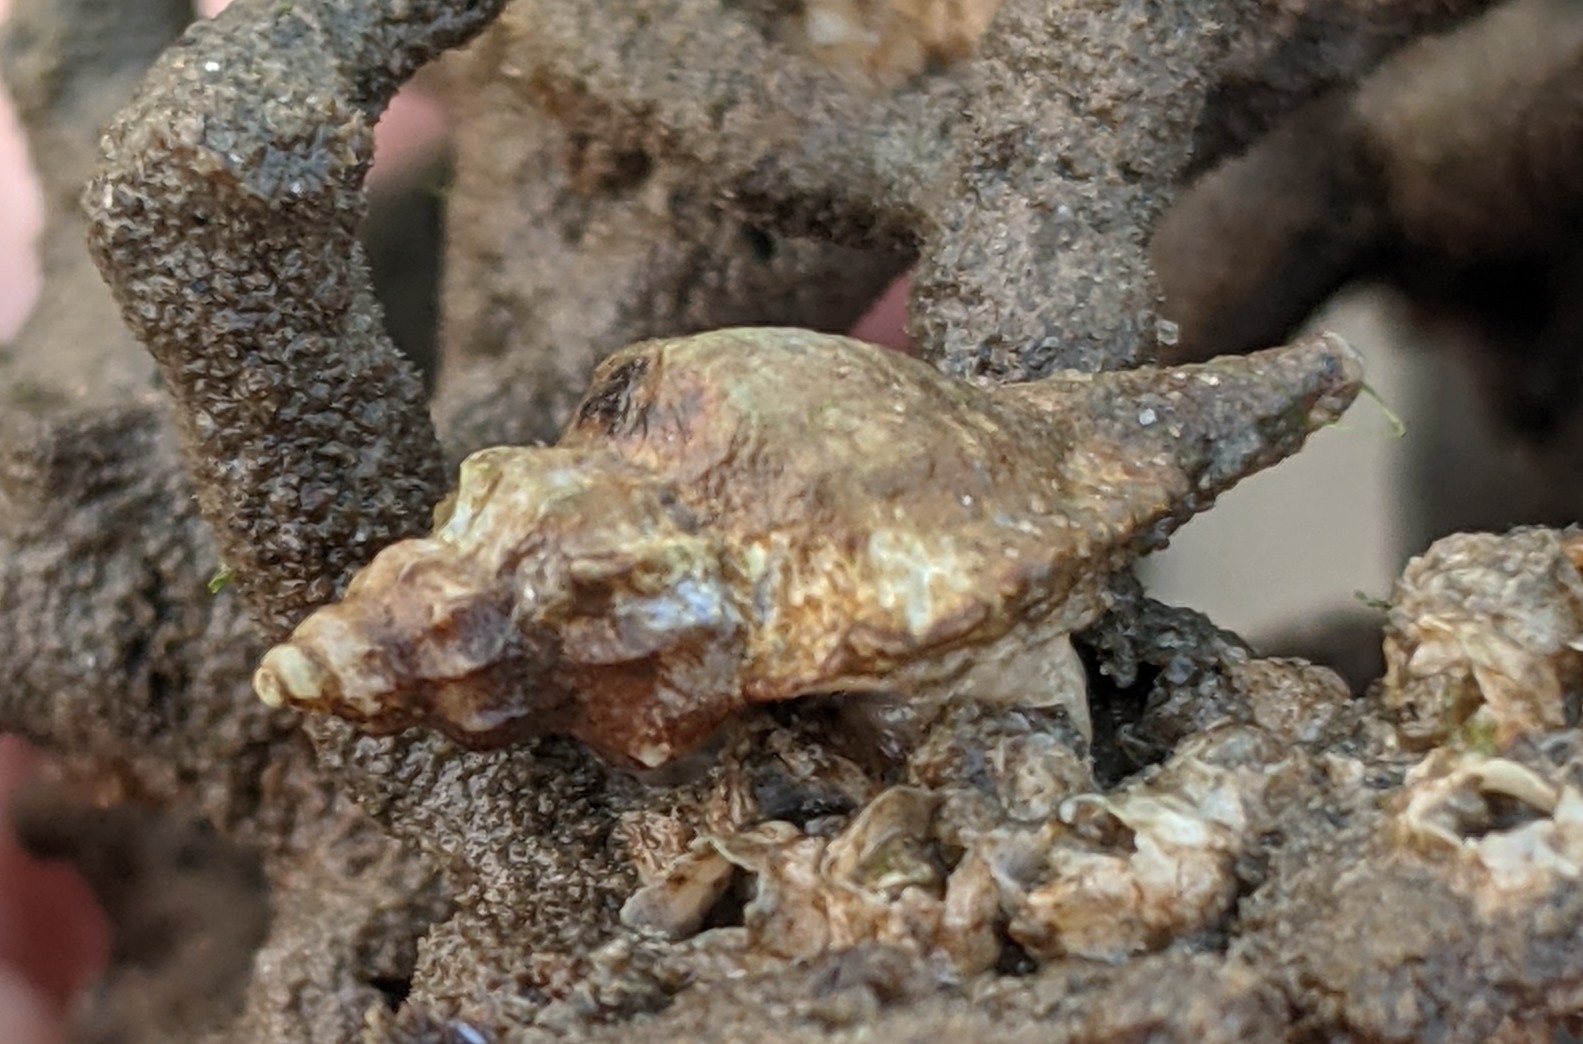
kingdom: Animalia
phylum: Mollusca
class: Gastropoda
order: Neogastropoda
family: Muricidae
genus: Eupleura
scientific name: Eupleura caudata
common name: Thick-lip drill
